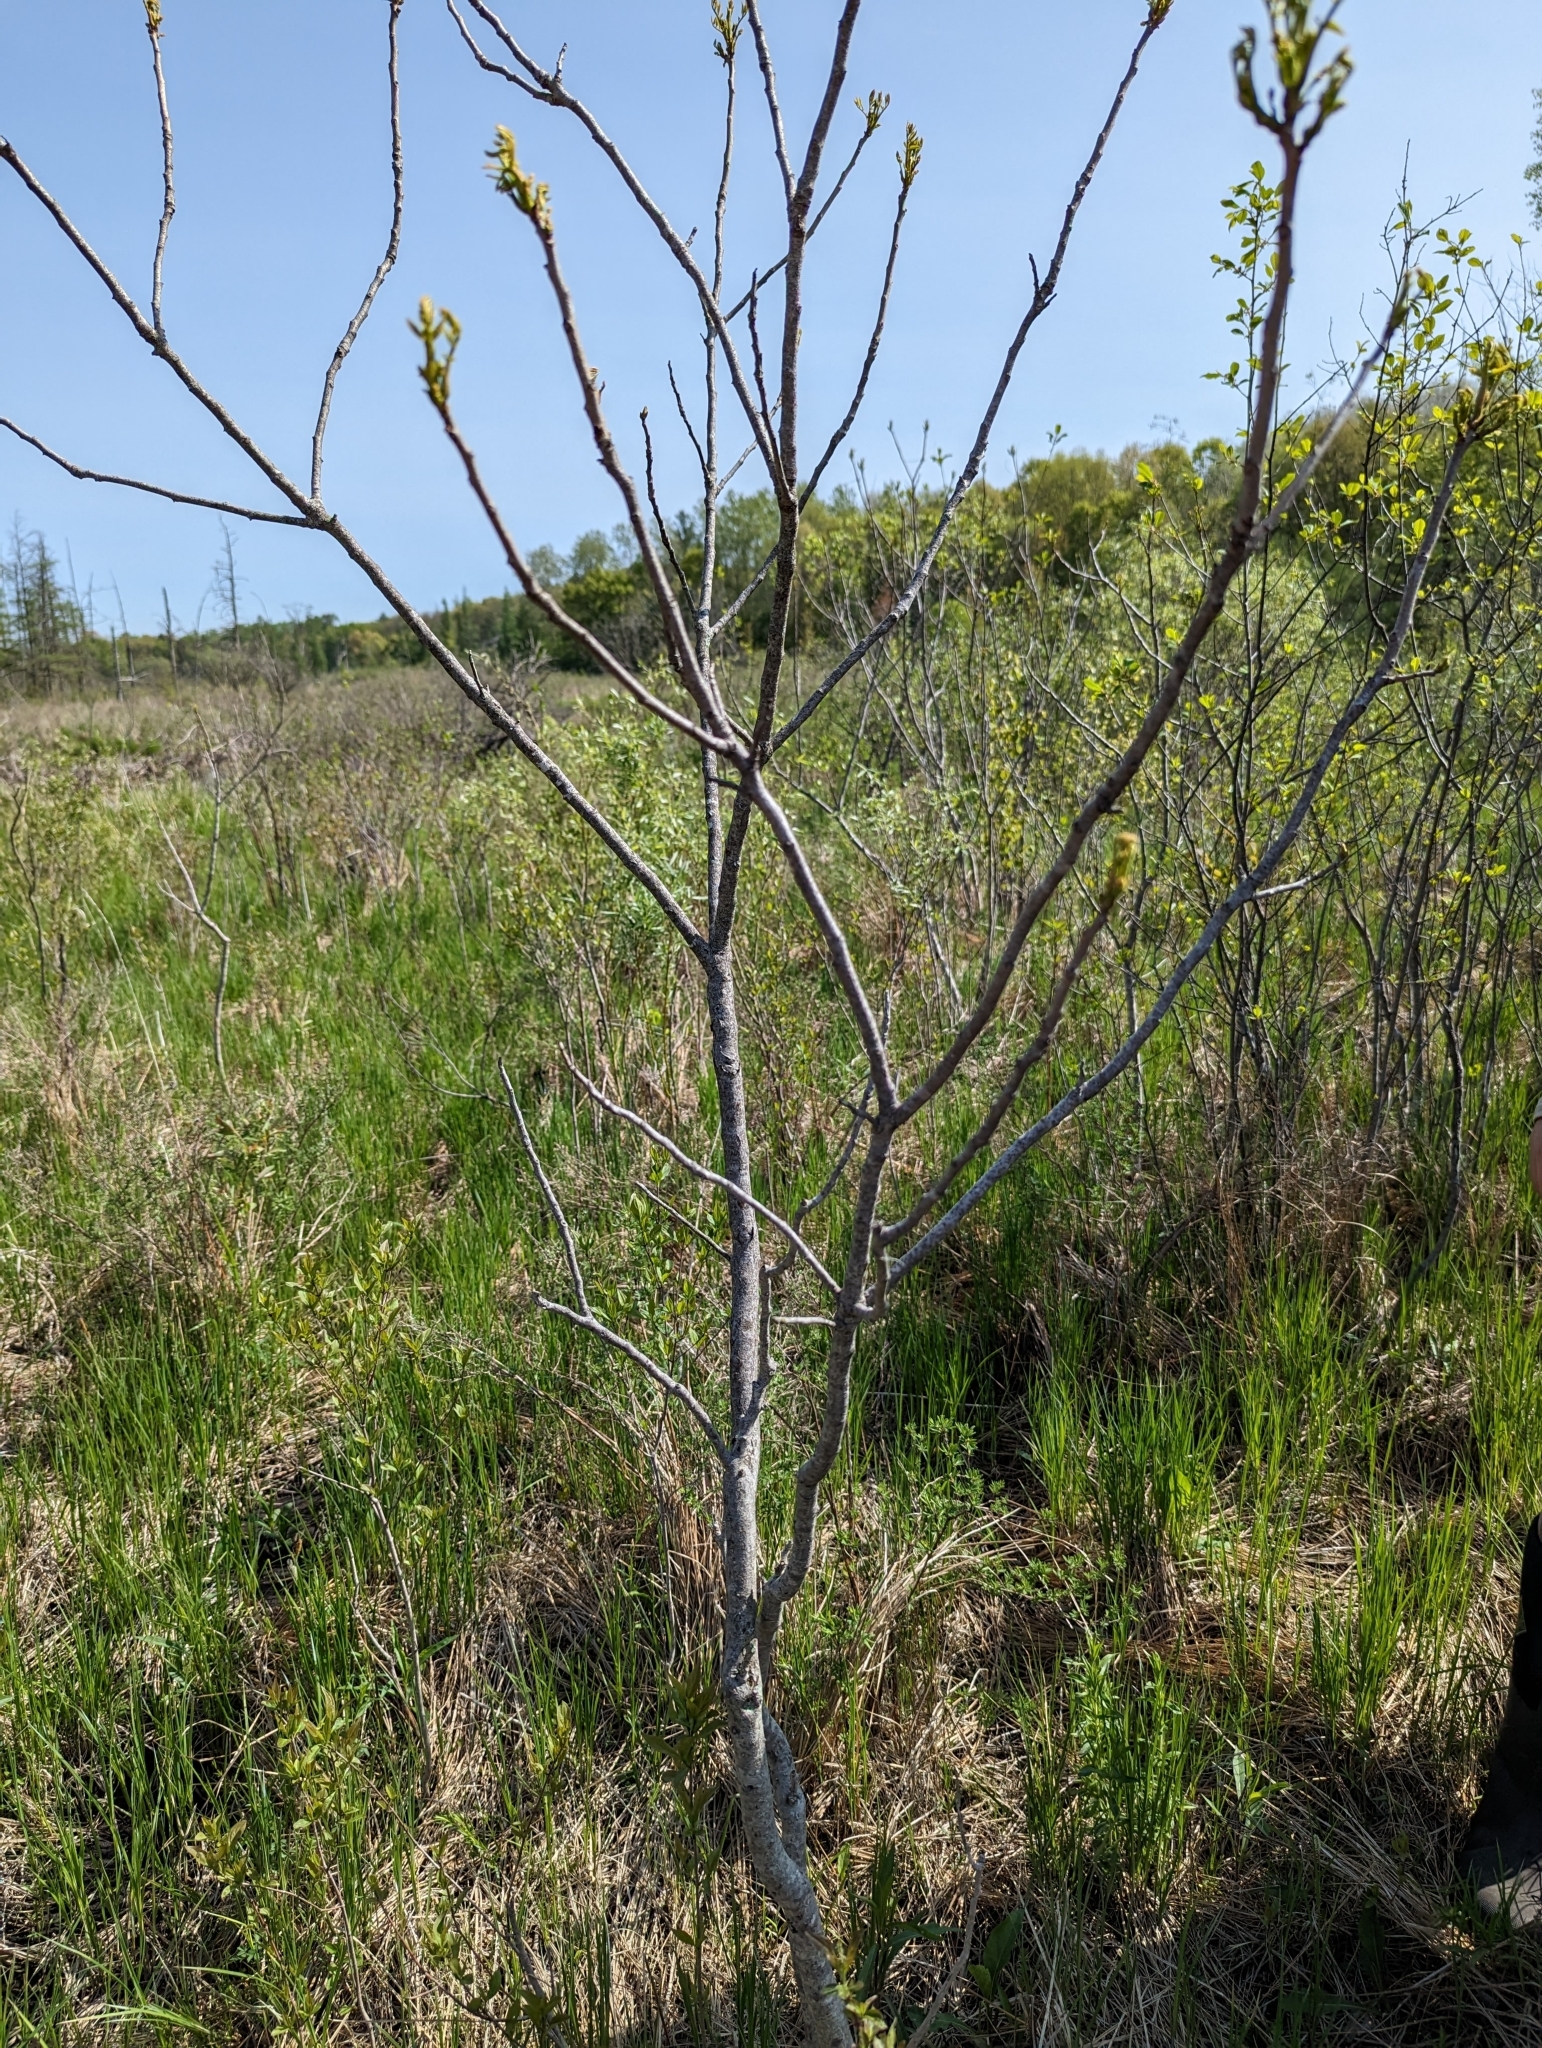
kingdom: Plantae
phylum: Tracheophyta
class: Magnoliopsida
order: Sapindales
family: Anacardiaceae
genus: Toxicodendron
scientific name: Toxicodendron vernix
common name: Poison sumac
